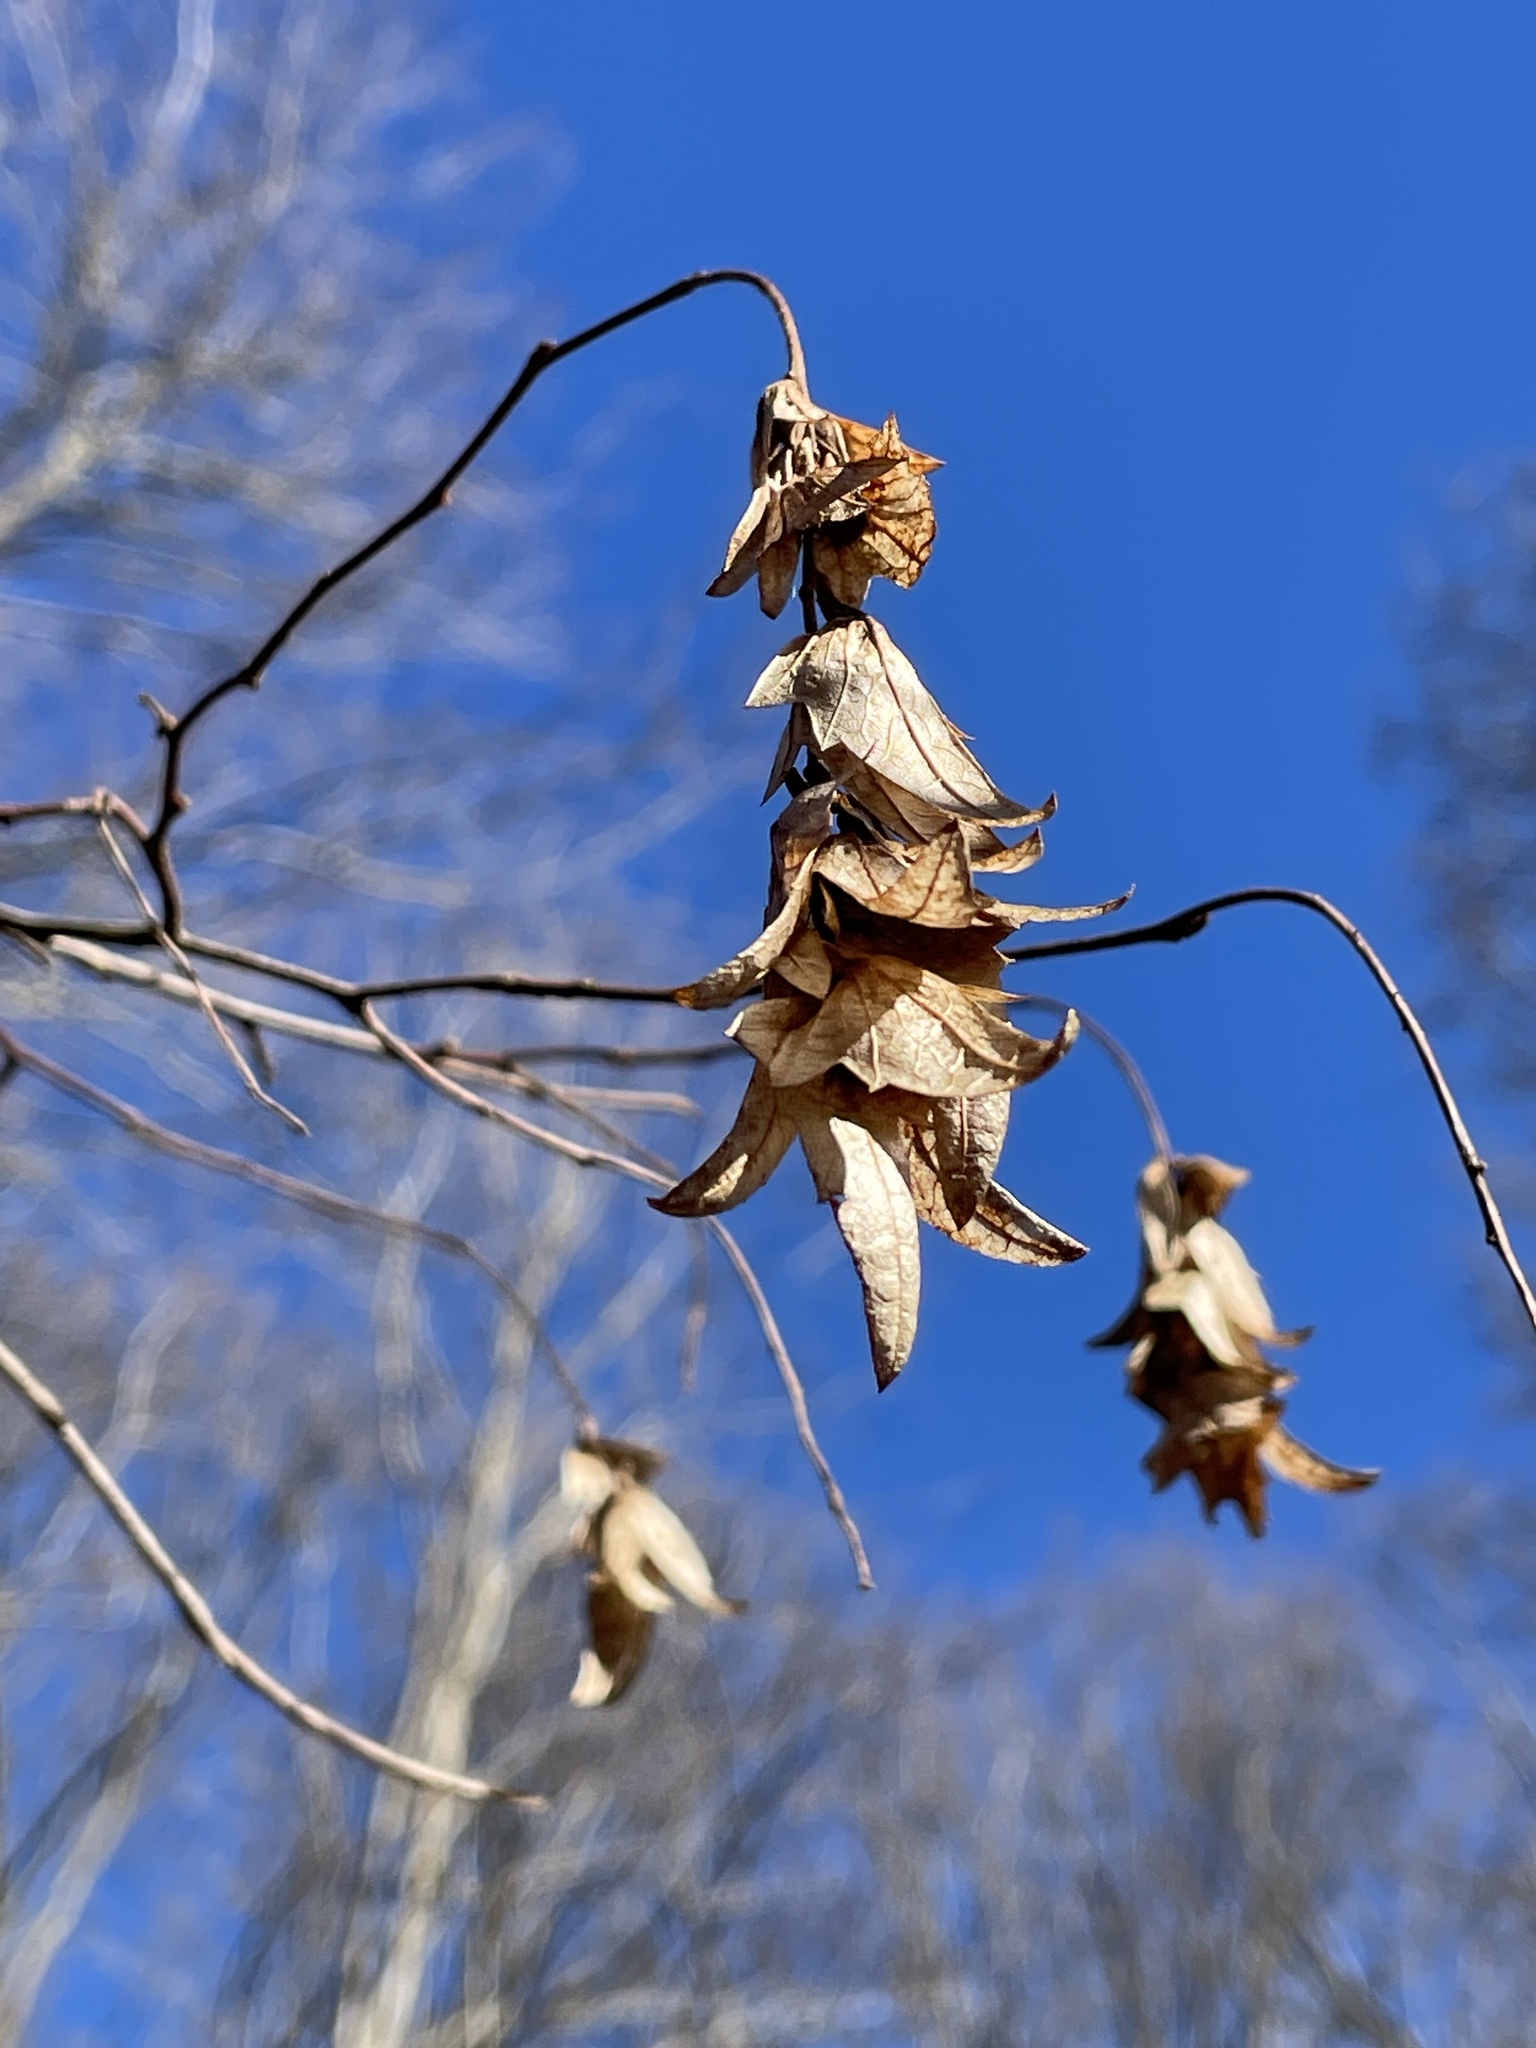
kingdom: Plantae
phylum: Tracheophyta
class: Magnoliopsida
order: Fagales
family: Betulaceae
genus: Carpinus
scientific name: Carpinus caroliniana
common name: American hornbeam
